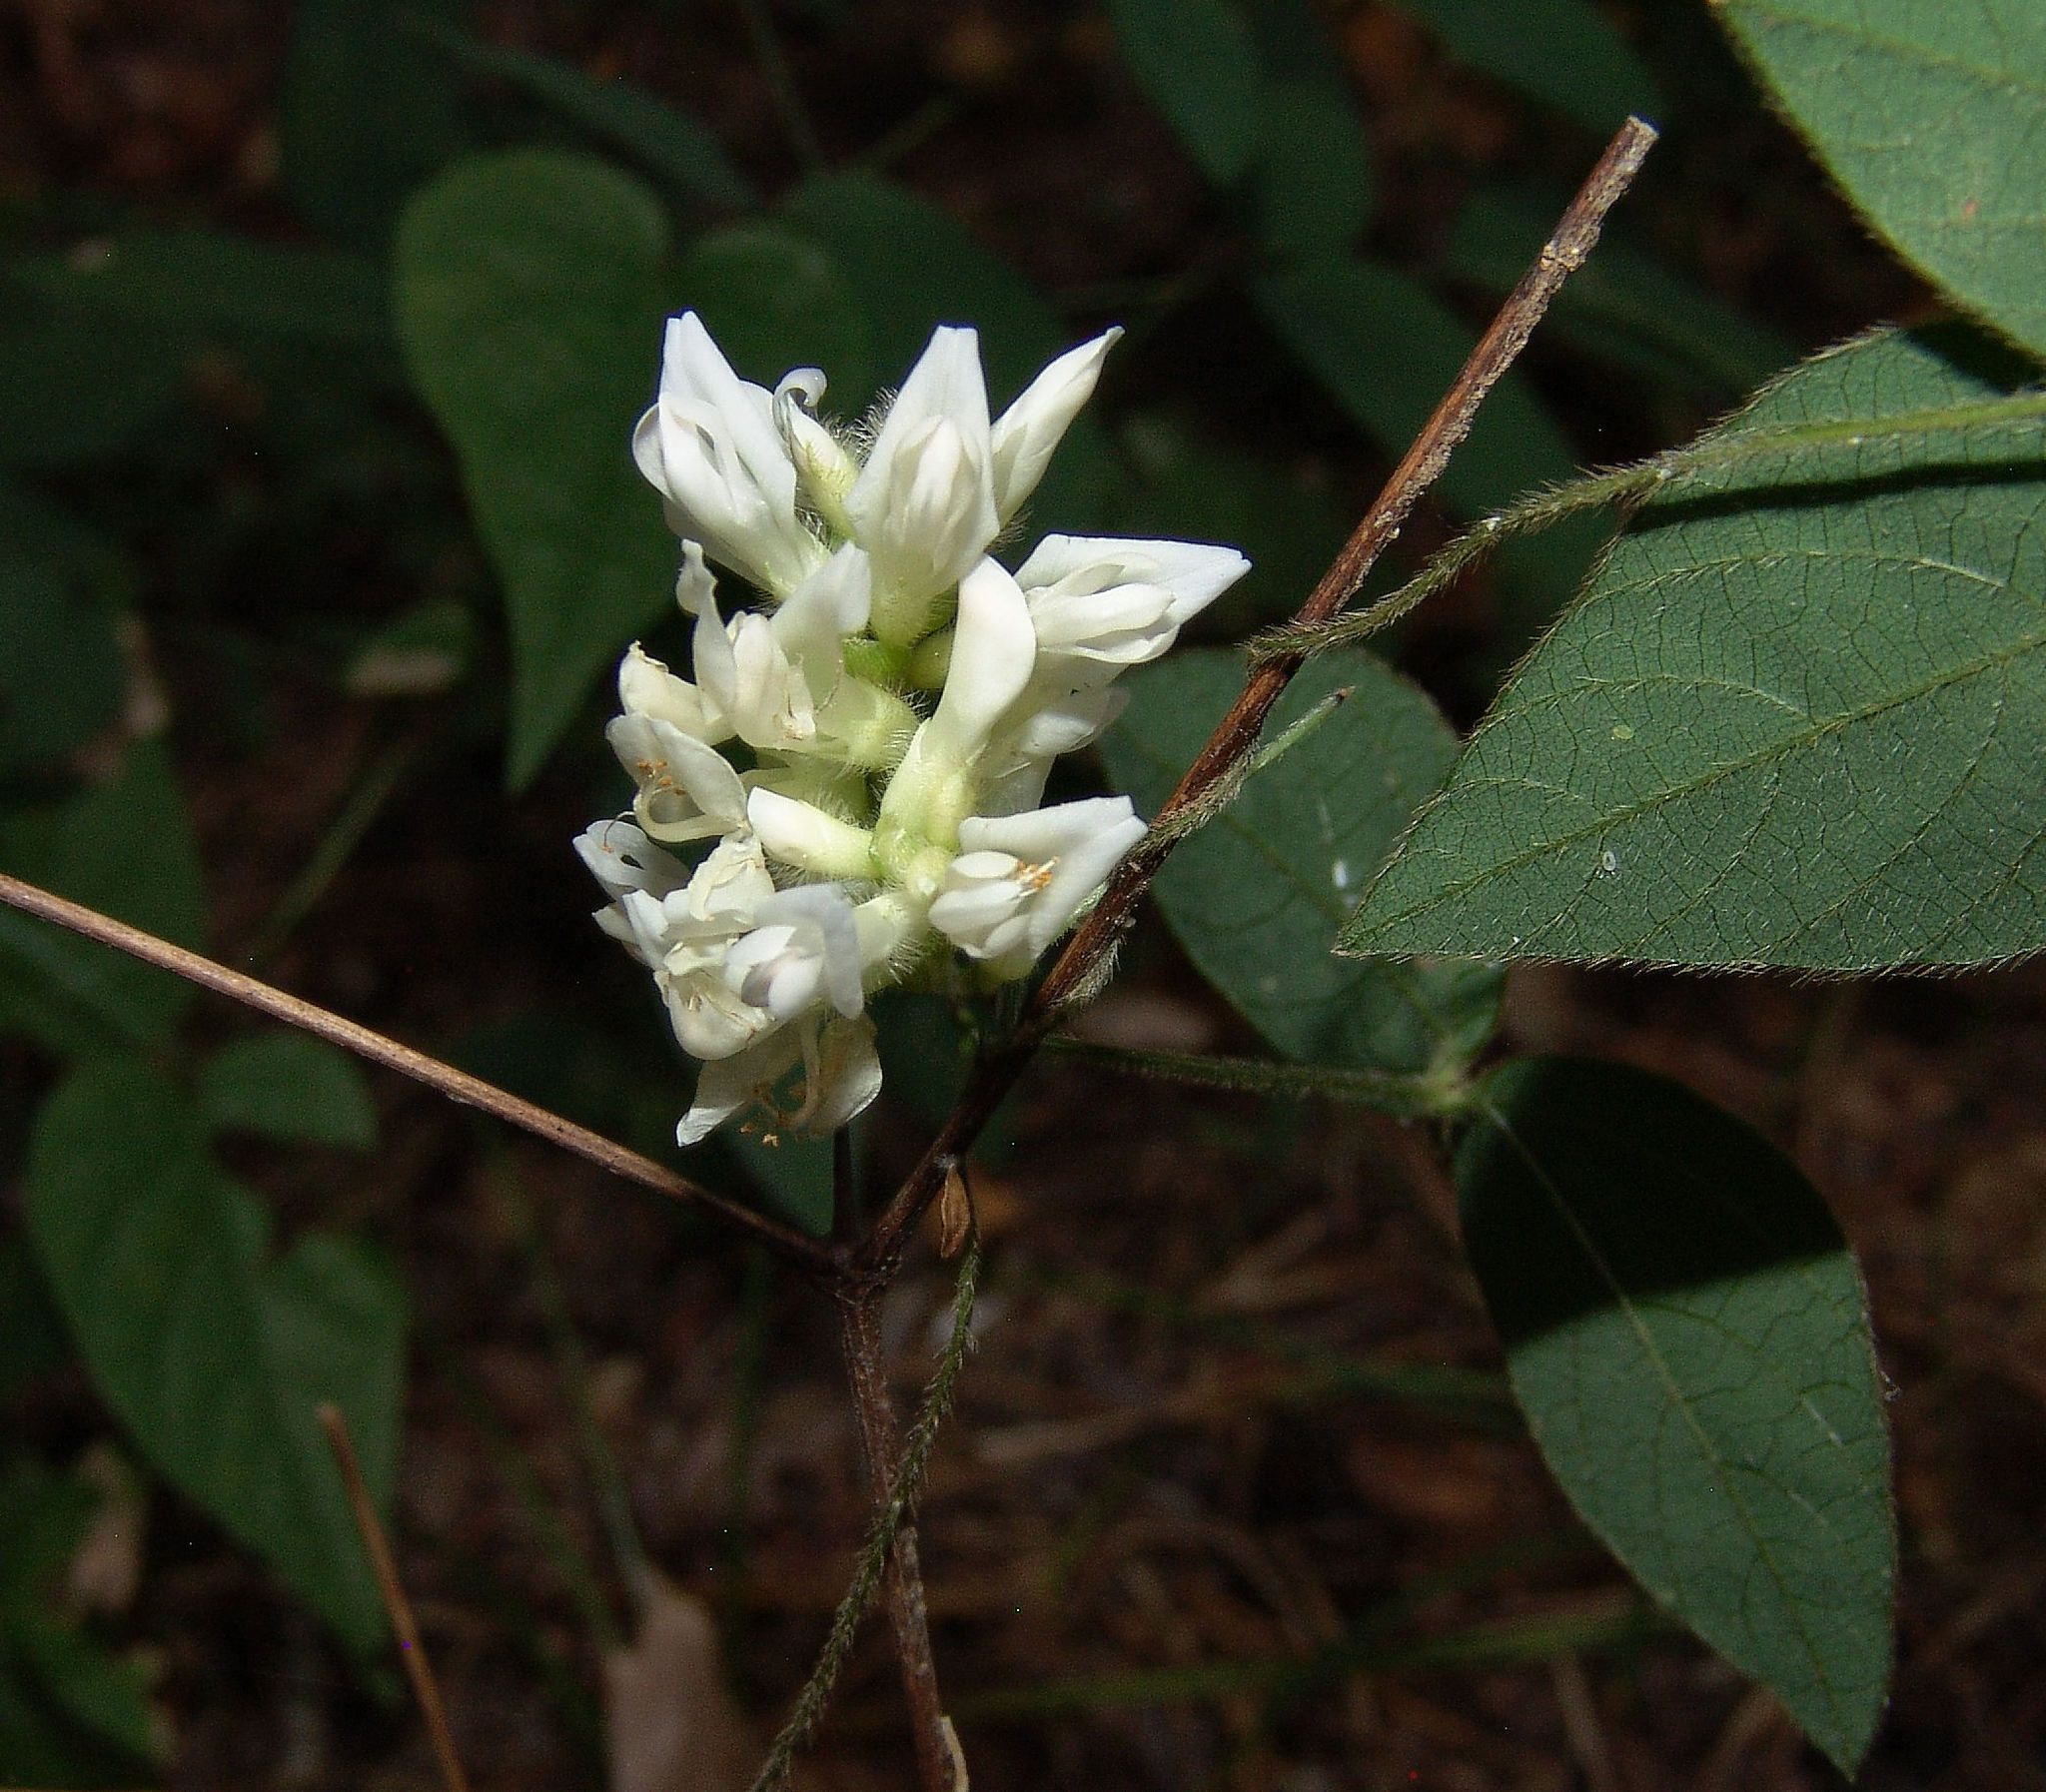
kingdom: Plantae
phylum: Tracheophyta
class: Magnoliopsida
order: Fabales
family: Fabaceae
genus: Amphicarpaea
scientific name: Amphicarpaea bracteata
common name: American hog peanut
